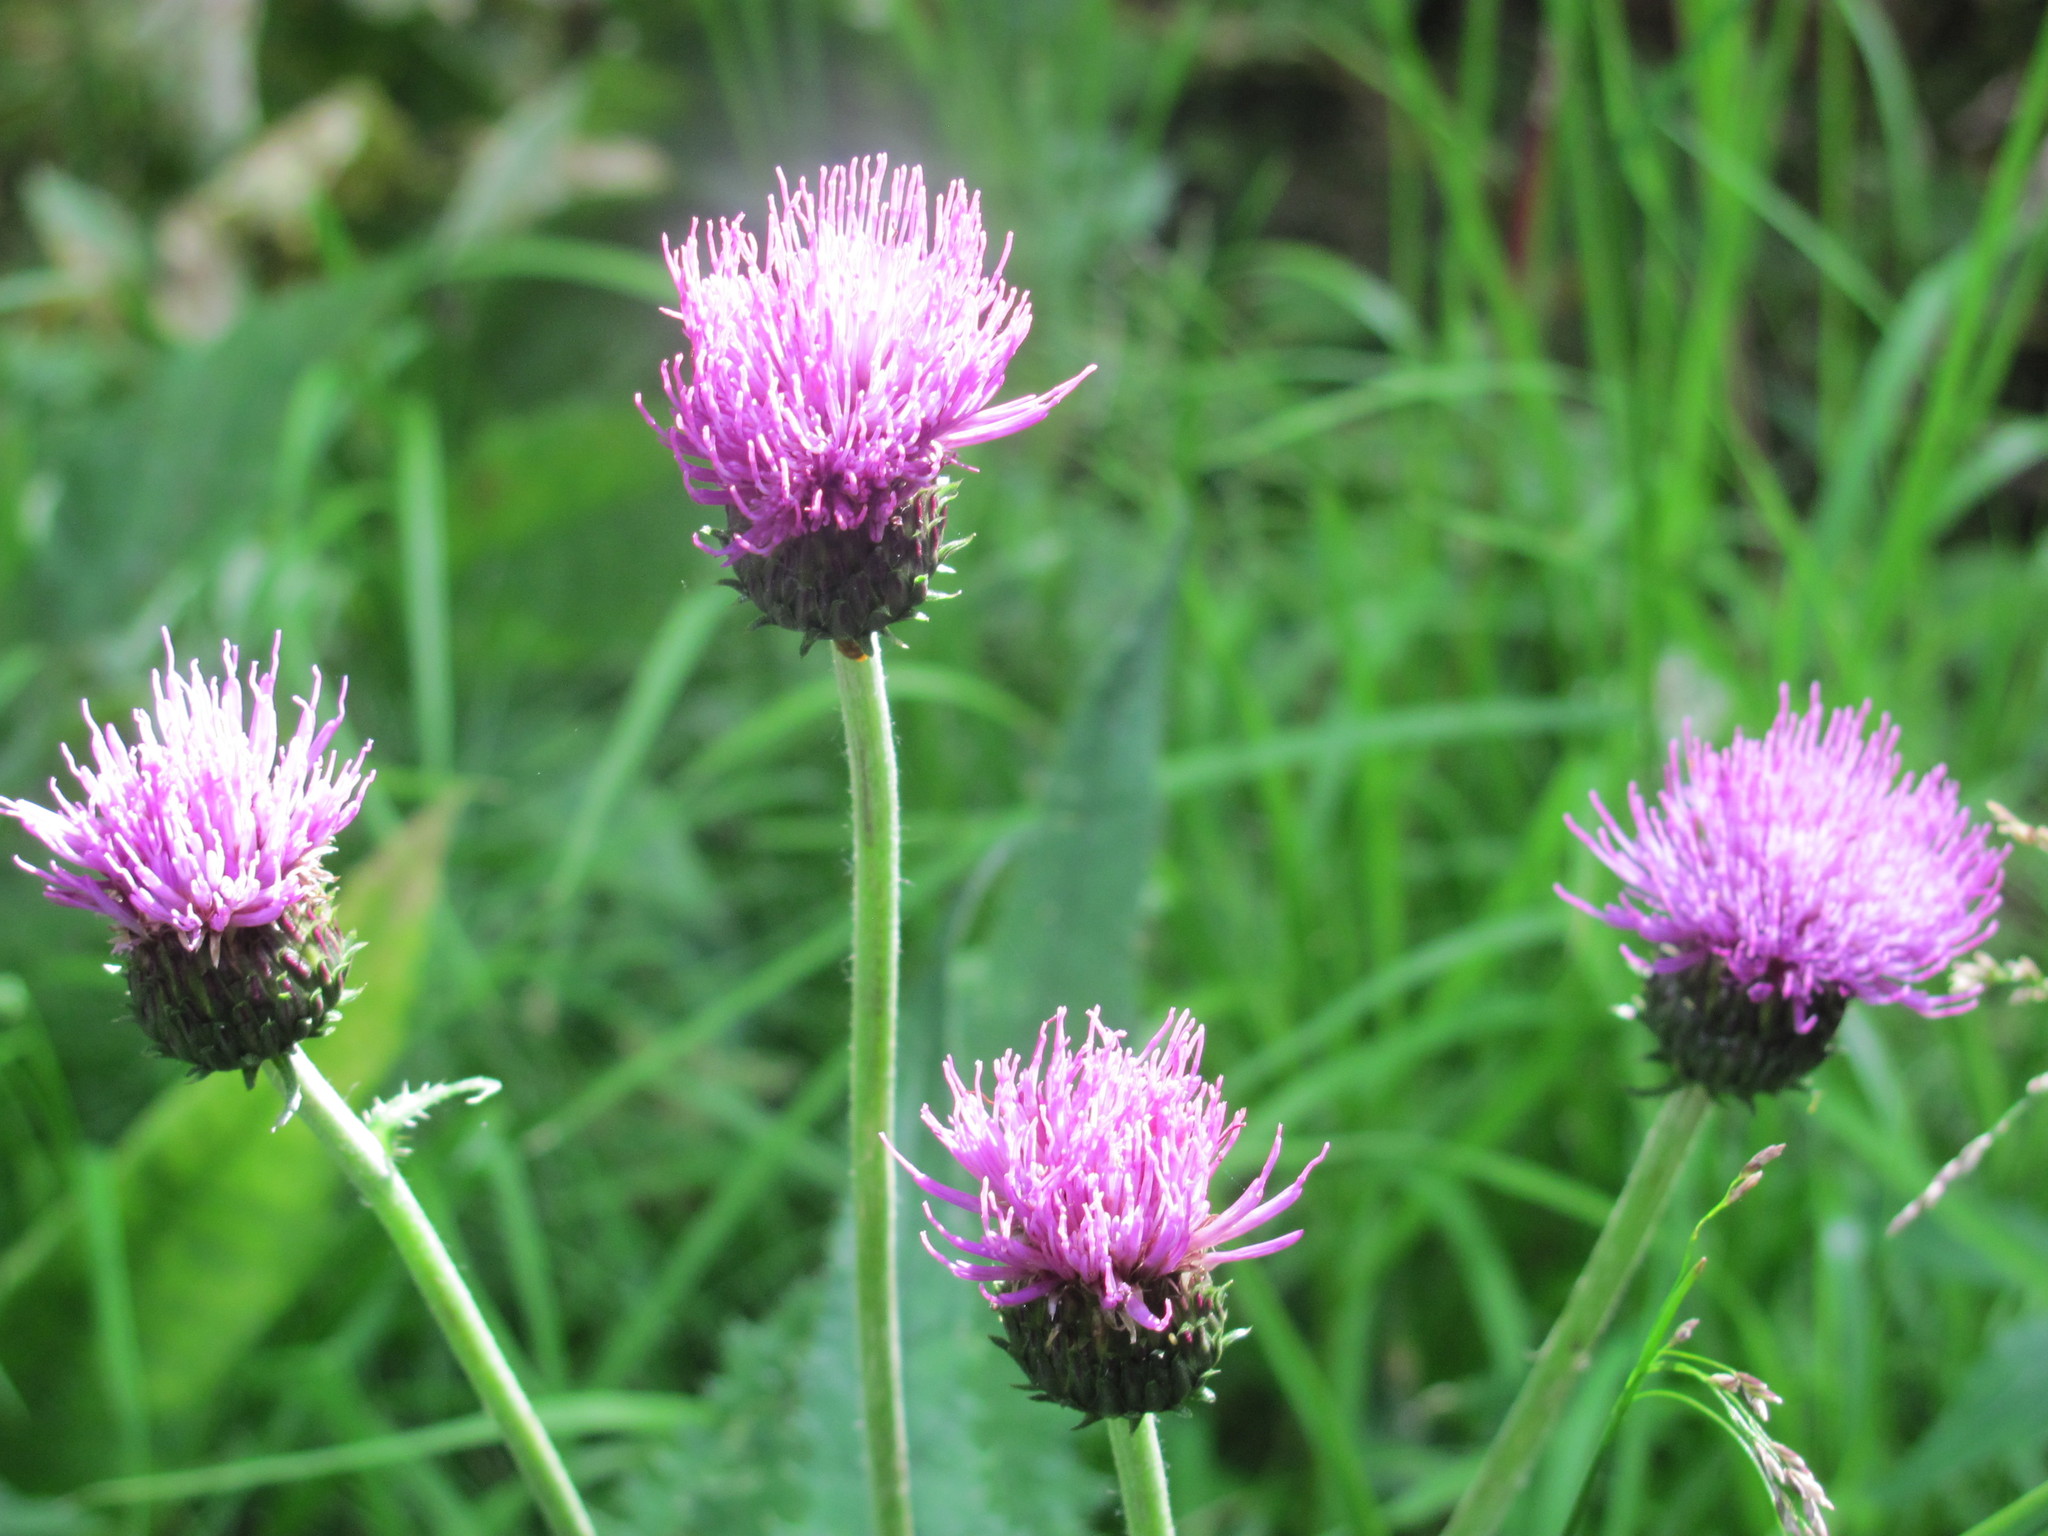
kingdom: Plantae
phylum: Tracheophyta
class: Magnoliopsida
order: Asterales
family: Asteraceae
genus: Cirsium
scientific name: Cirsium heterophyllum
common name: Melancholy thistle
